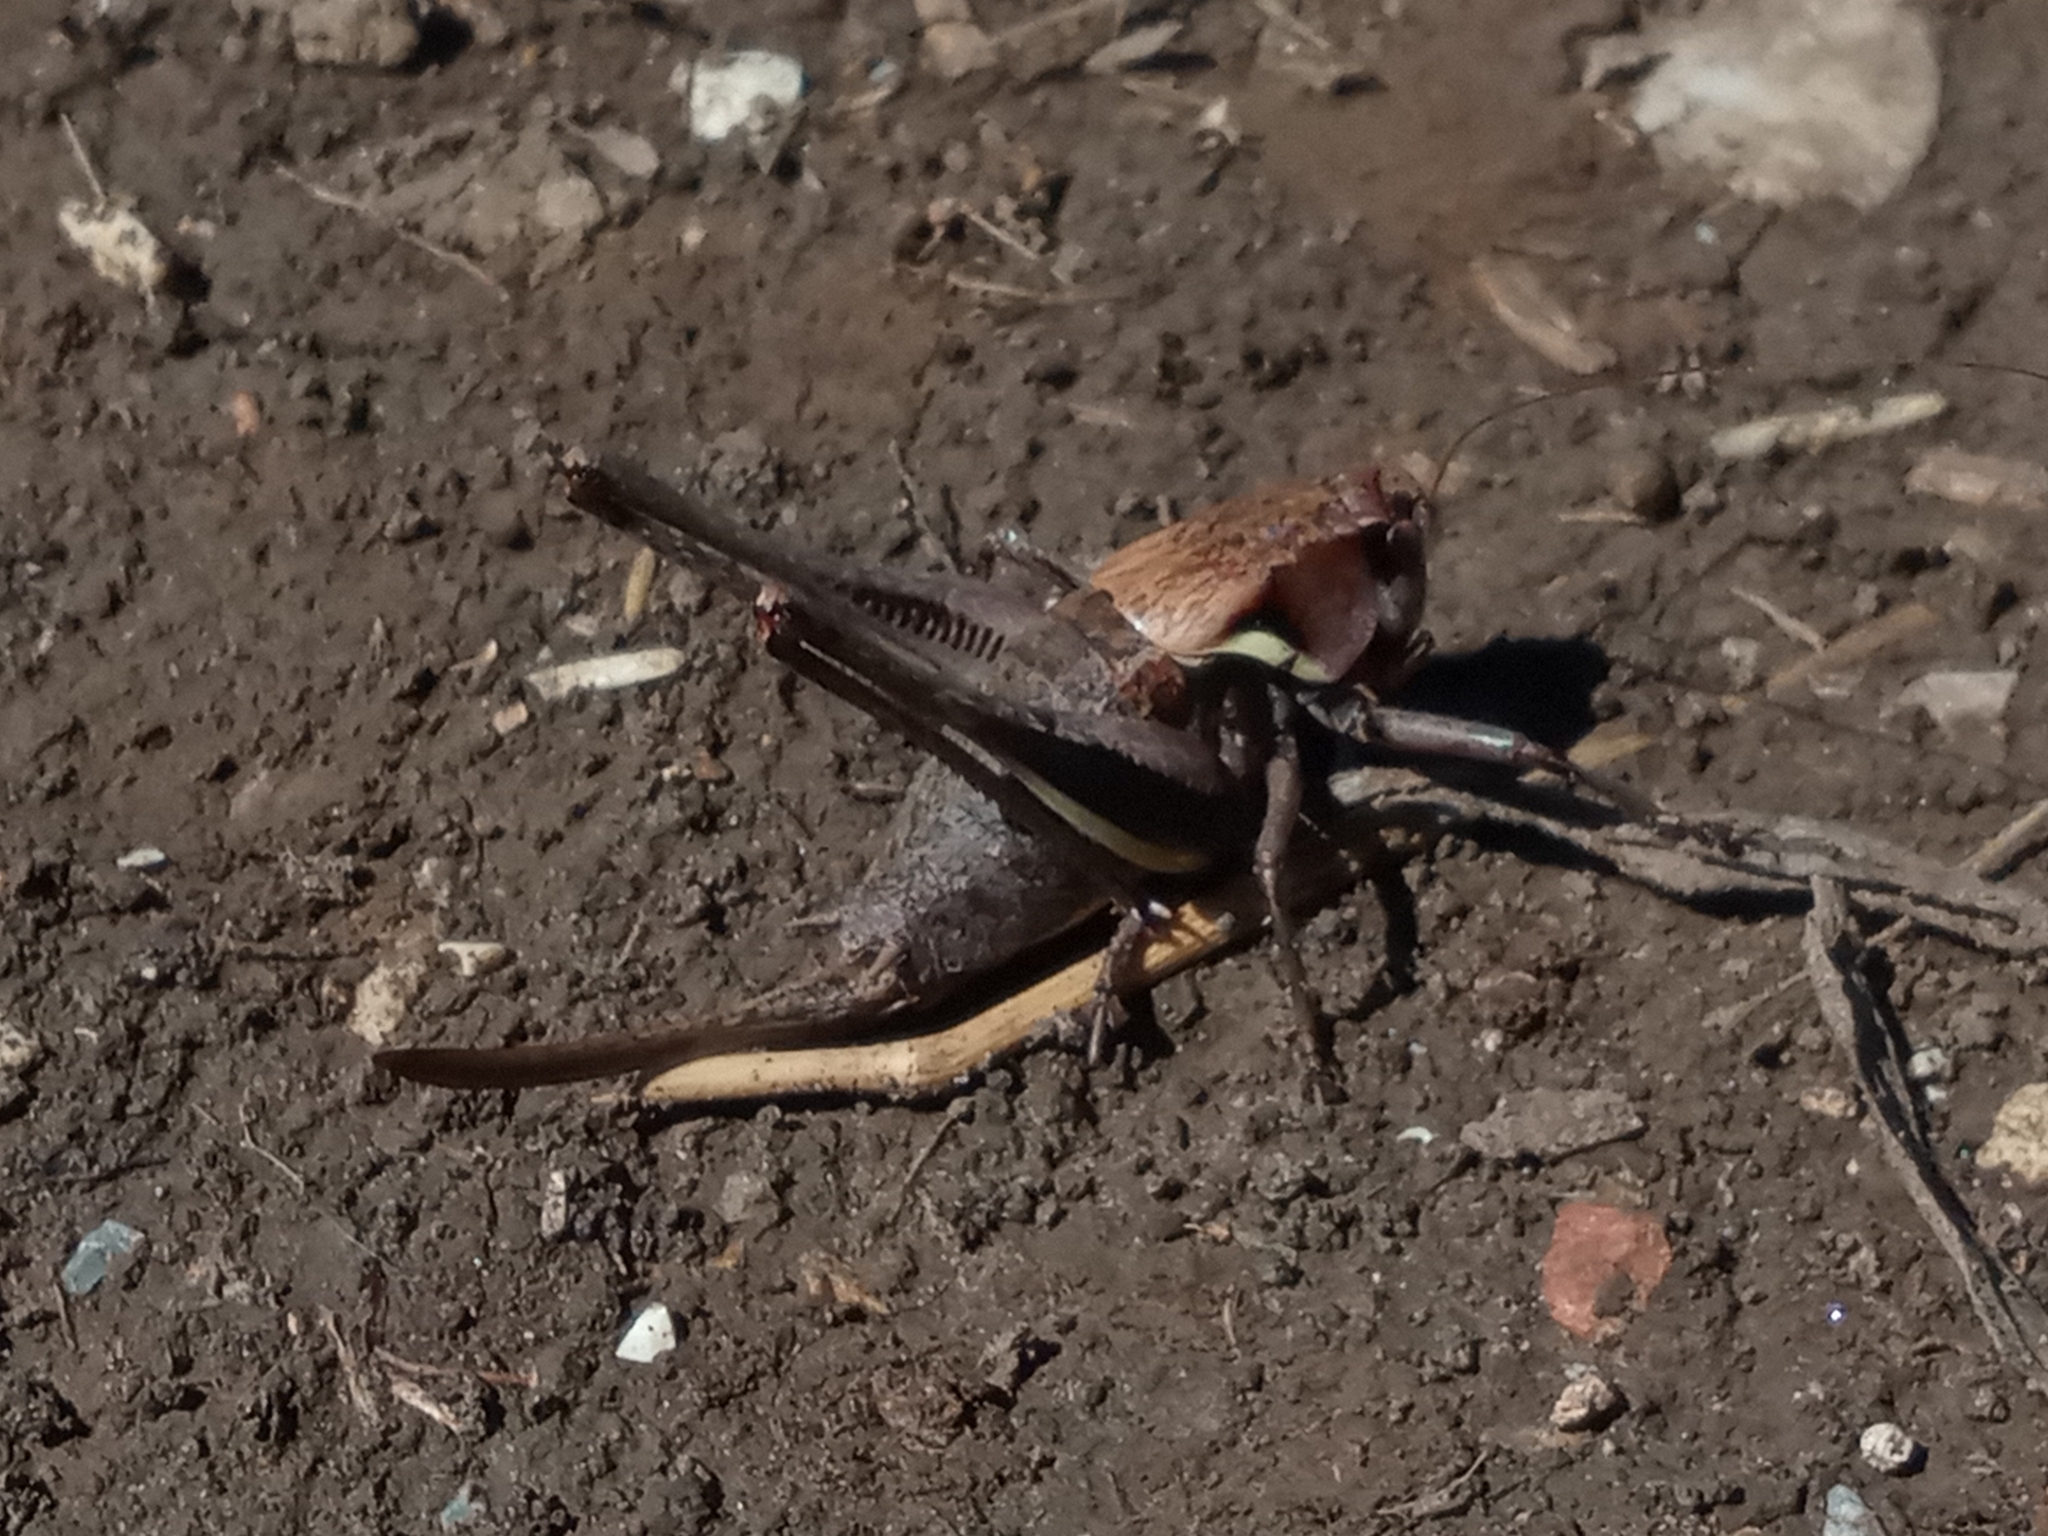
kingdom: Animalia
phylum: Arthropoda
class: Insecta
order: Orthoptera
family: Tettigoniidae
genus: Pholidoptera
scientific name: Pholidoptera aptera
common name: Alpine dark bush-cricket
